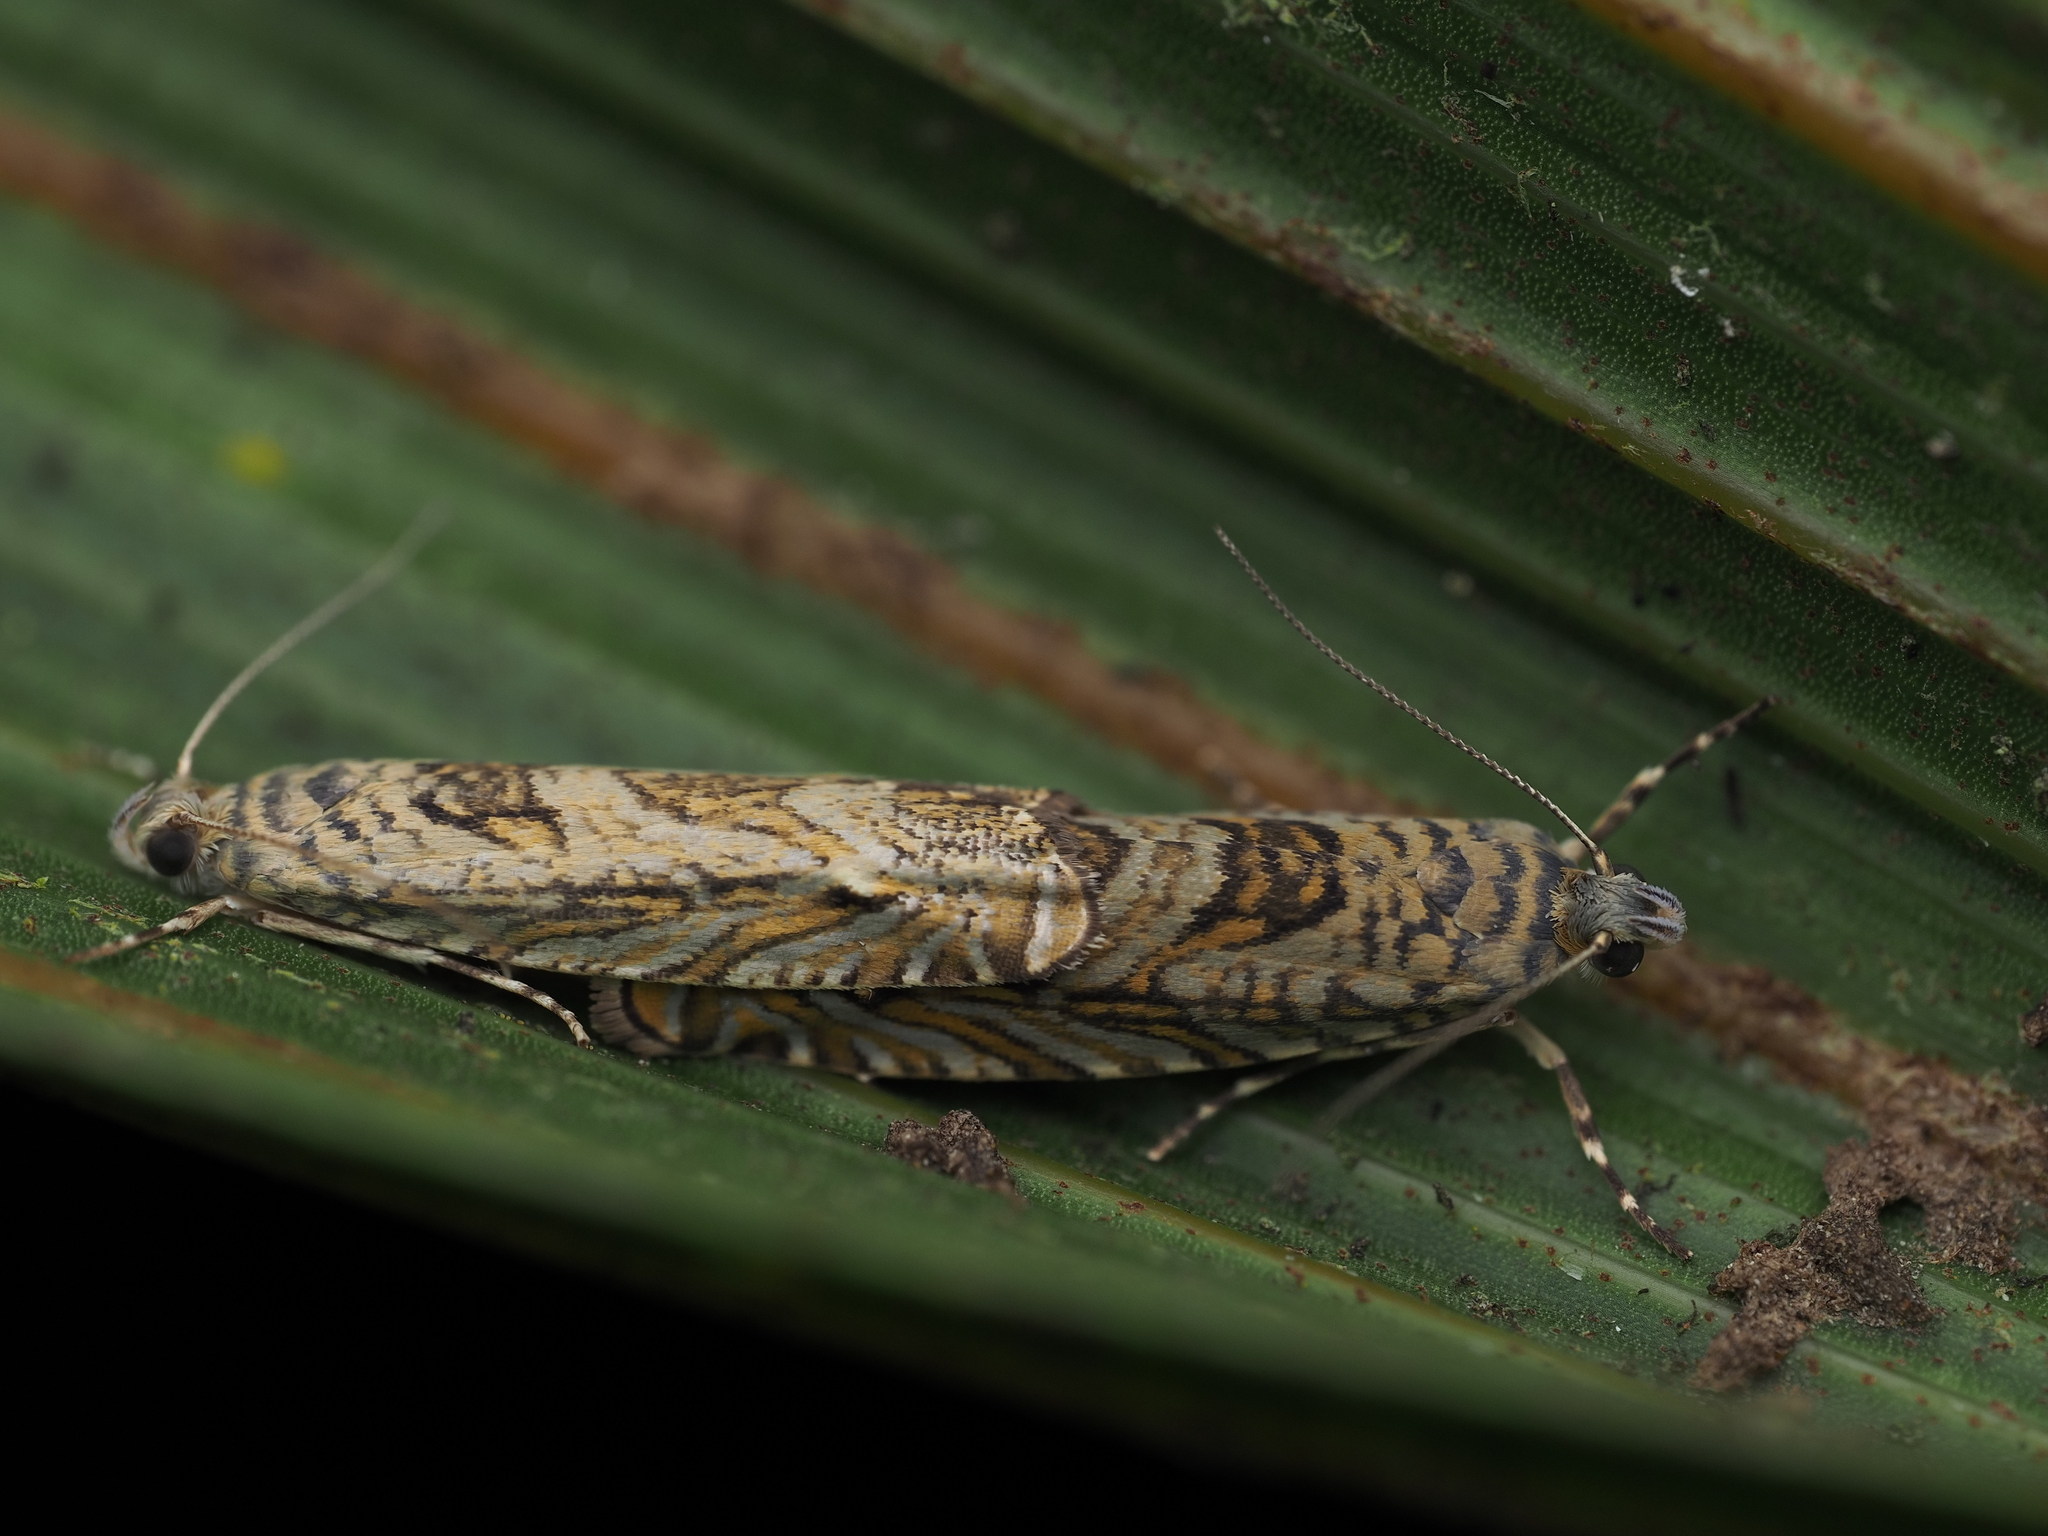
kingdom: Animalia
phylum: Arthropoda
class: Insecta
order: Lepidoptera
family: Plutellidae
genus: Doxophyrtis
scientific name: Doxophyrtis hydrocosma
